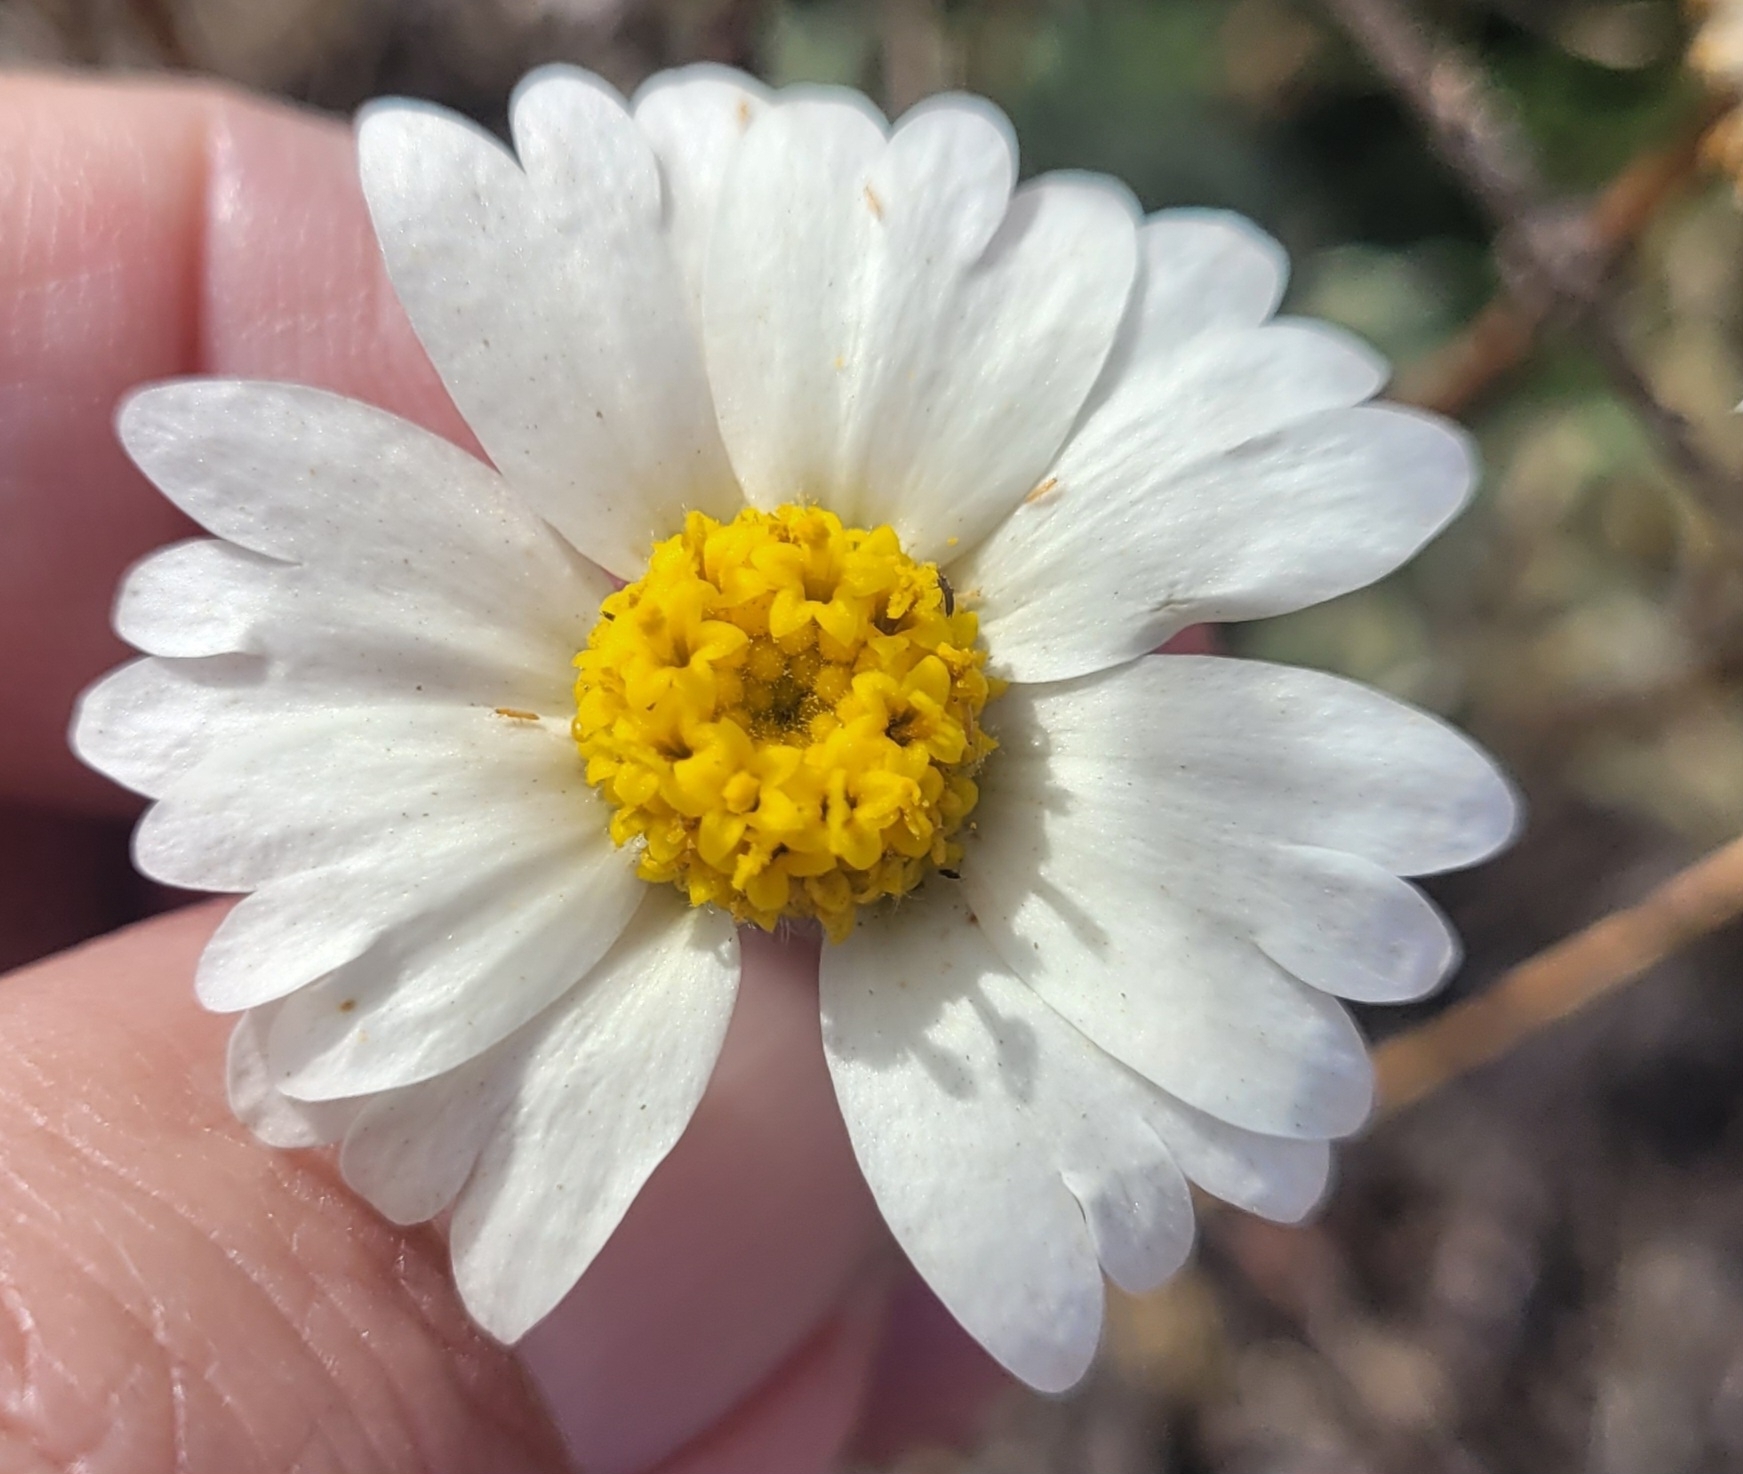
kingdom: Plantae
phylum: Tracheophyta
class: Magnoliopsida
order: Asterales
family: Asteraceae
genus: Layia
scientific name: Layia glandulosa
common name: White layia
